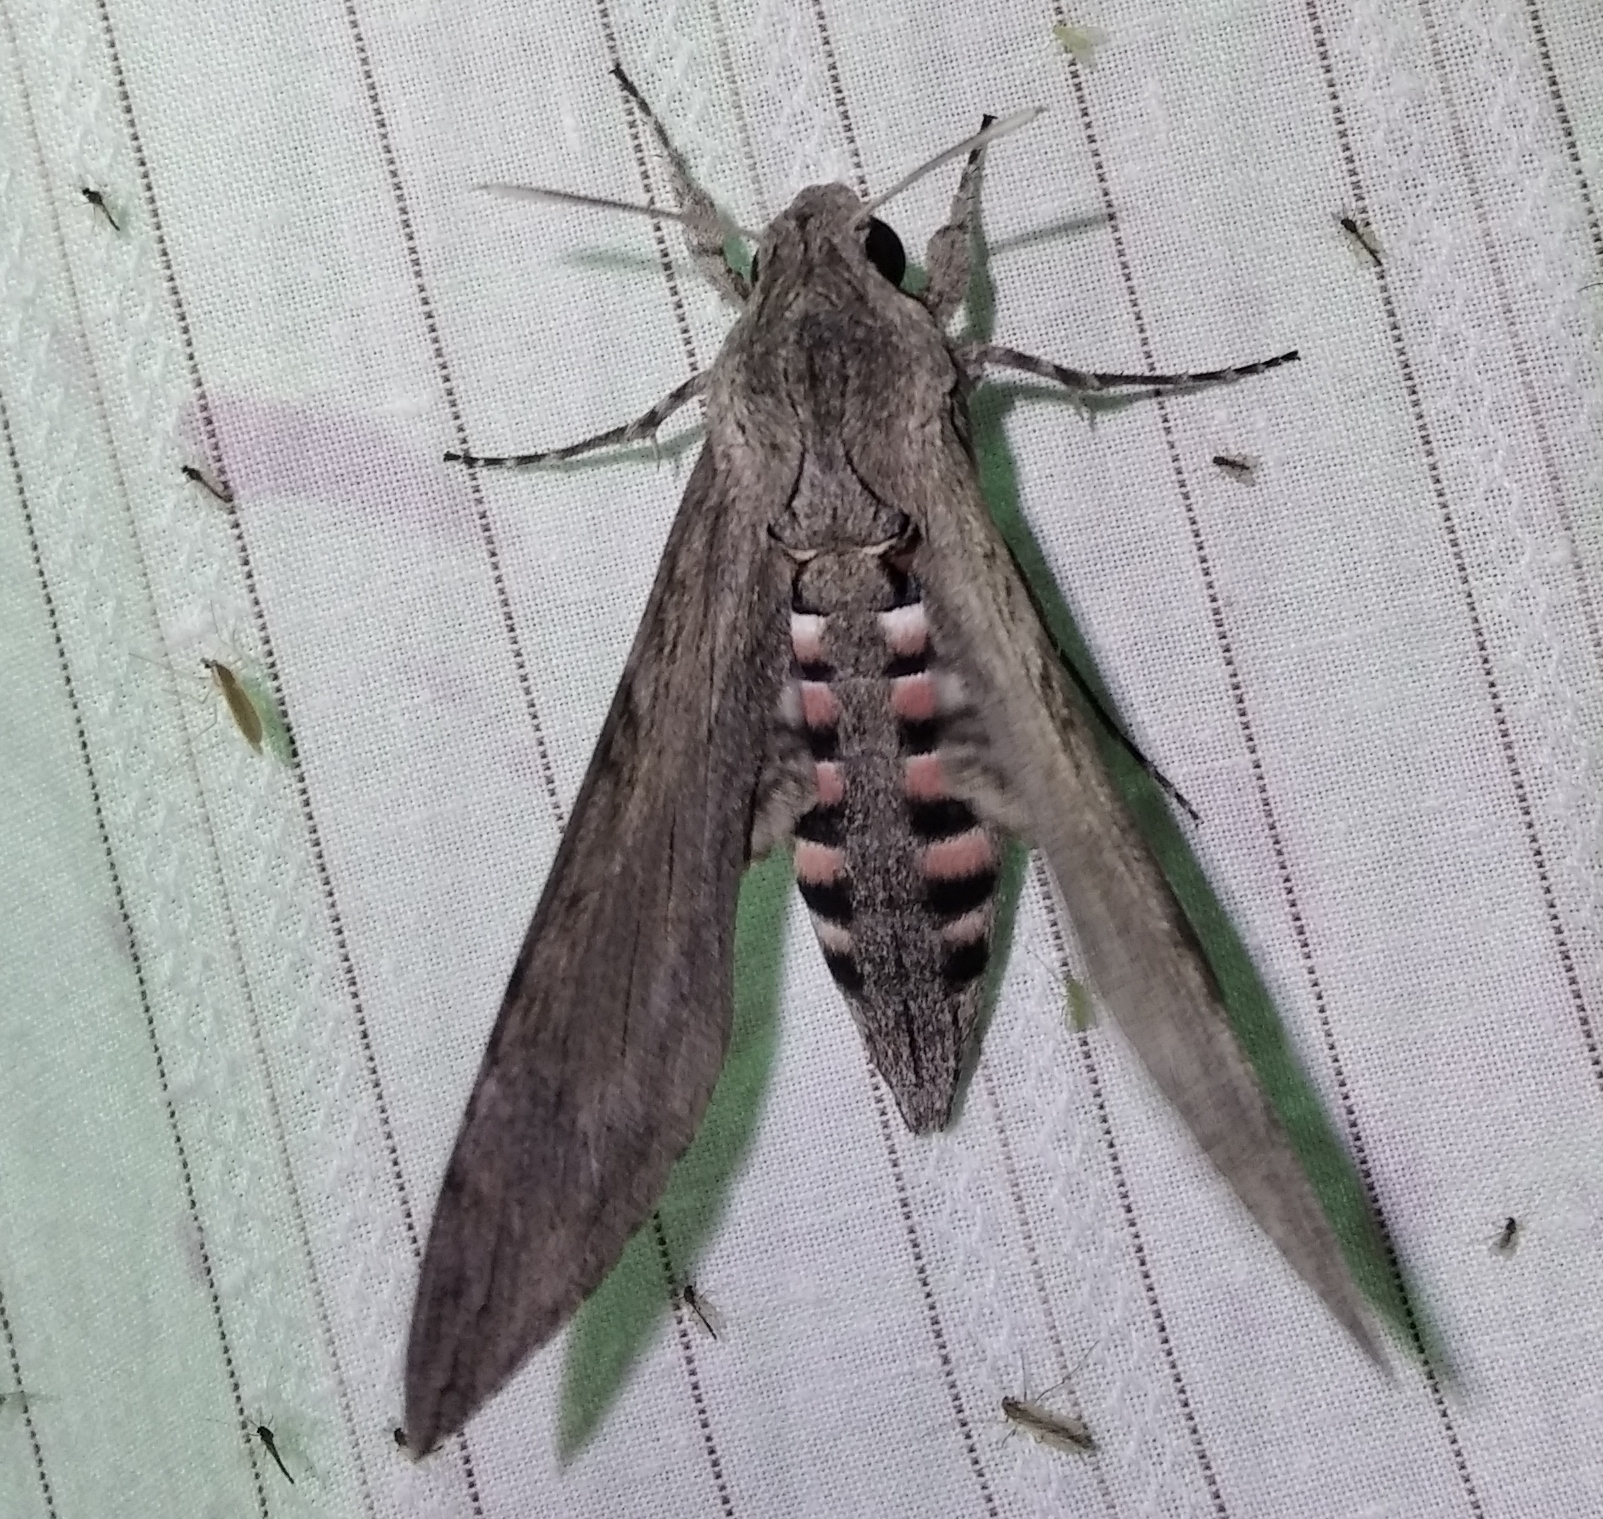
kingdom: Animalia
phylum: Arthropoda
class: Insecta
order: Lepidoptera
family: Sphingidae
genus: Agrius
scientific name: Agrius convolvuli
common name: Convolvulus hawkmoth
